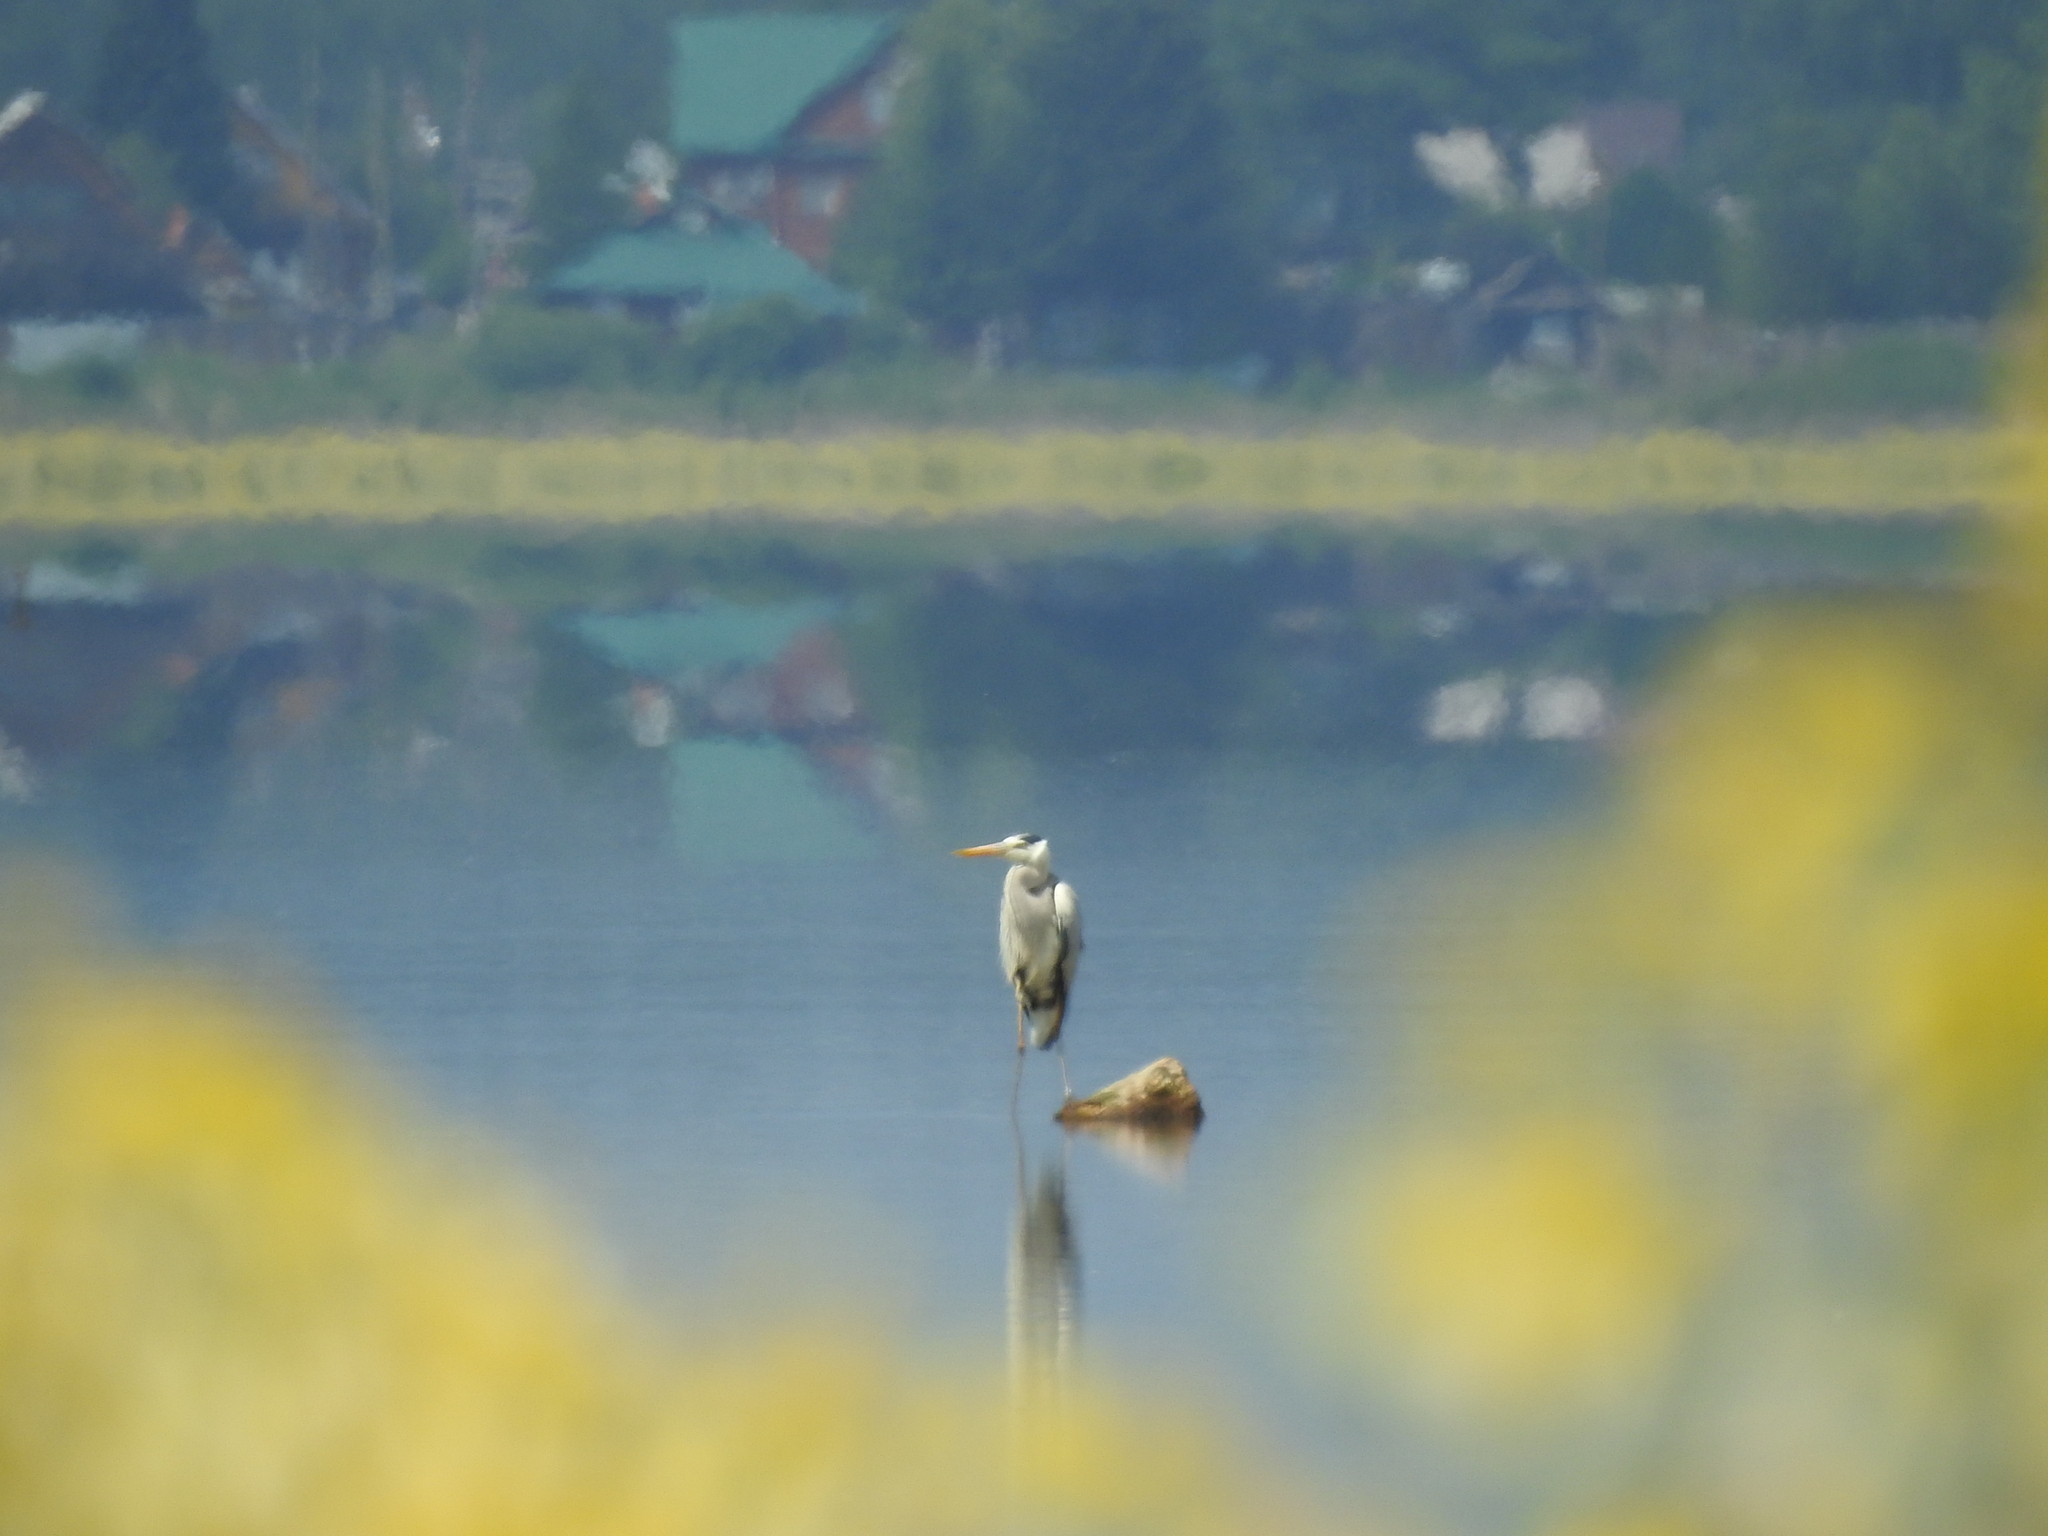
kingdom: Animalia
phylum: Chordata
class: Aves
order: Pelecaniformes
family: Ardeidae
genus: Ardea
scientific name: Ardea cinerea
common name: Grey heron
